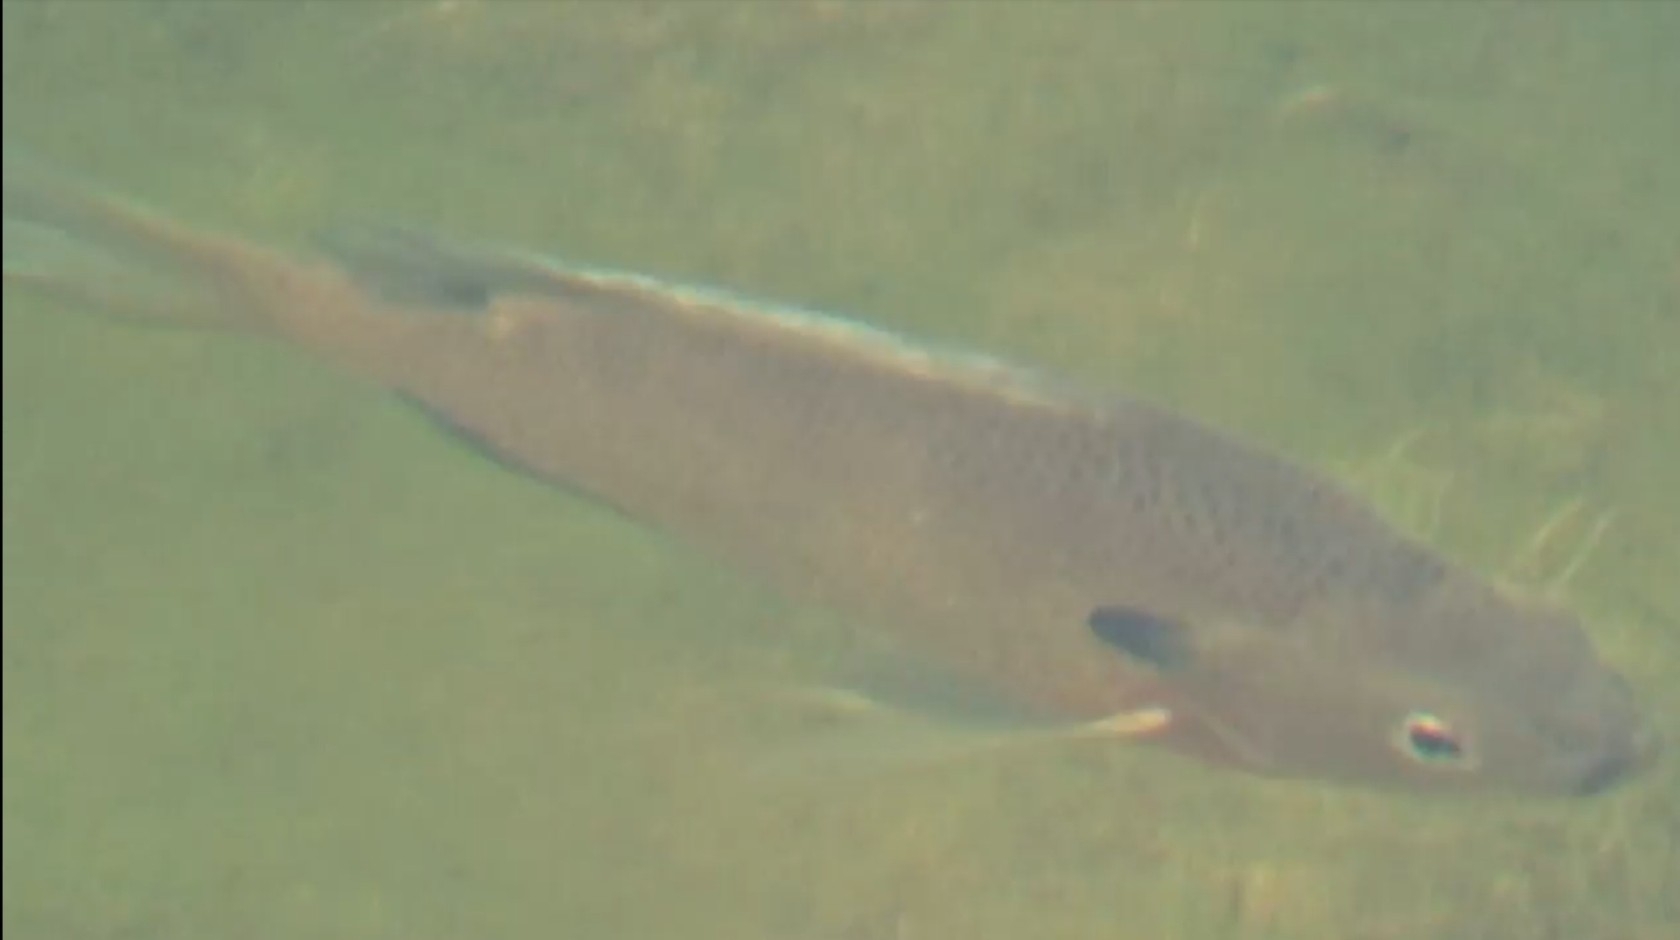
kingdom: Animalia
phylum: Chordata
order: Perciformes
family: Centrarchidae
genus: Lepomis
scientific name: Lepomis macrochirus
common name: Bluegill
